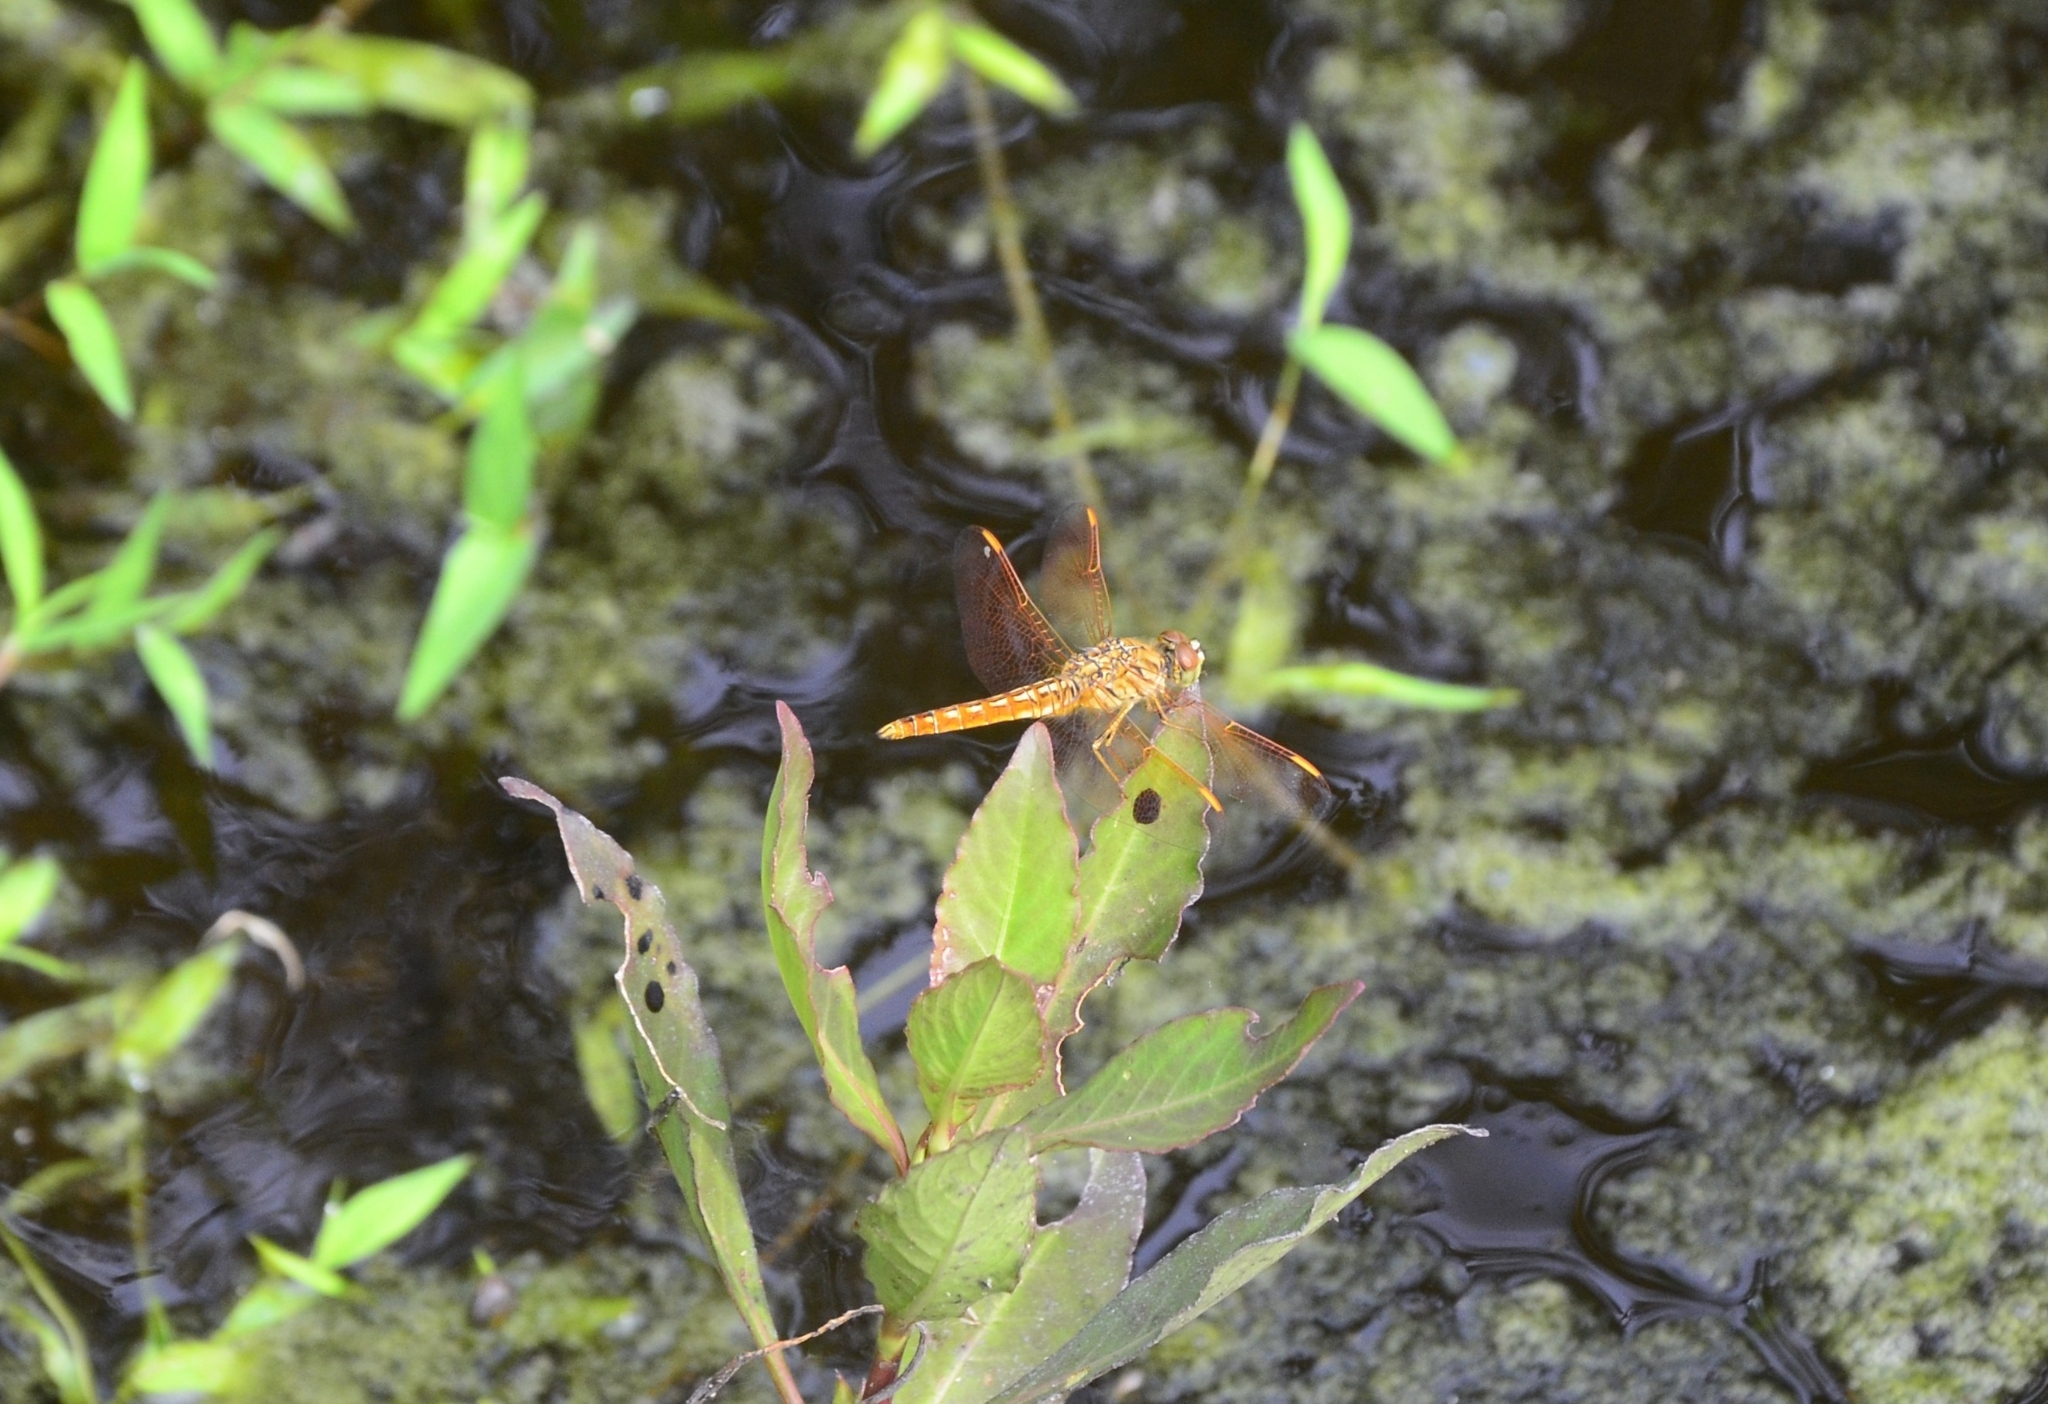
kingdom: Animalia
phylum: Arthropoda
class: Insecta
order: Odonata
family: Libellulidae
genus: Brachythemis
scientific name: Brachythemis contaminata
